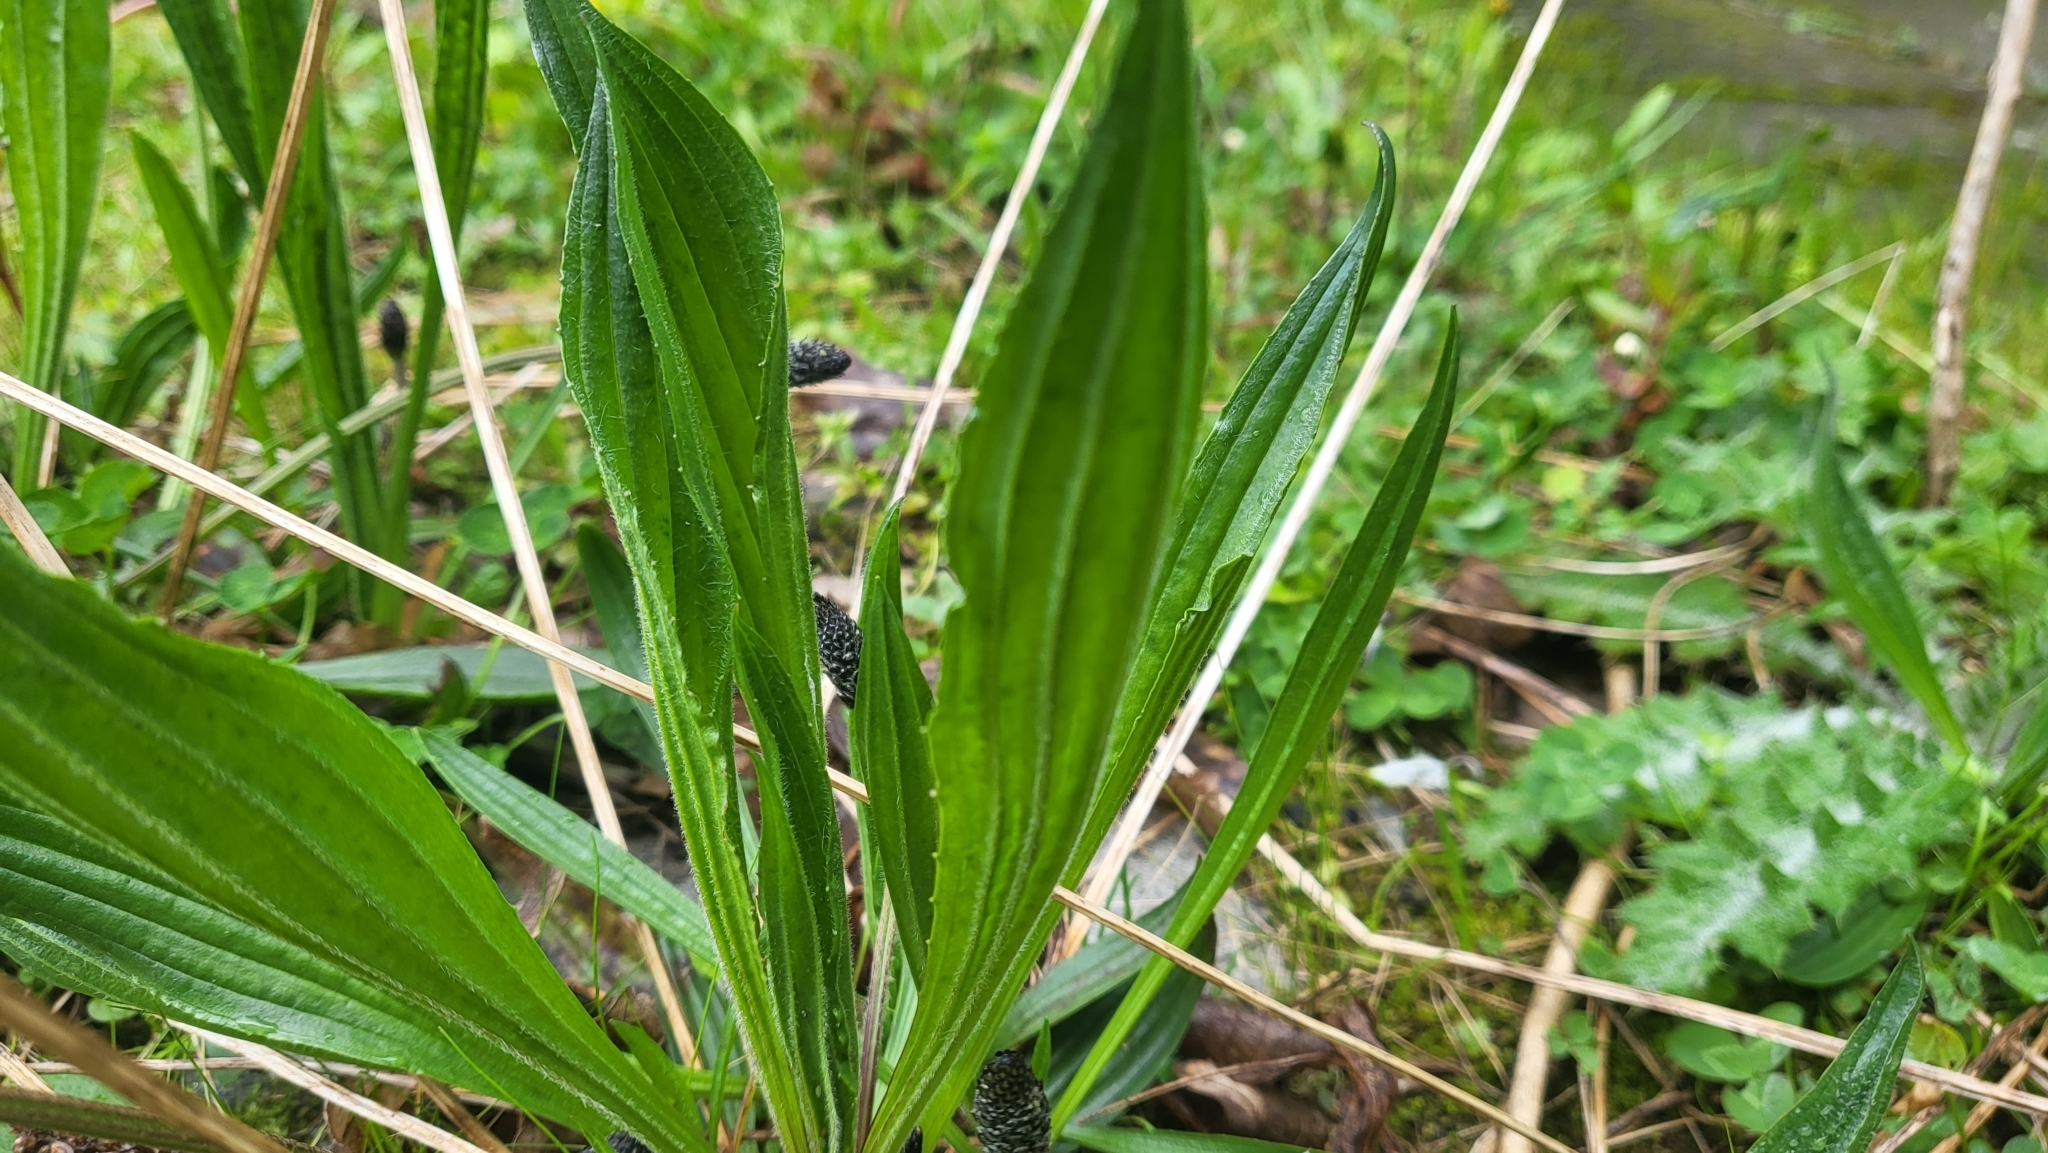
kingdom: Plantae
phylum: Tracheophyta
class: Magnoliopsida
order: Lamiales
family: Plantaginaceae
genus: Plantago
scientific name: Plantago lanceolata
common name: Ribwort plantain
